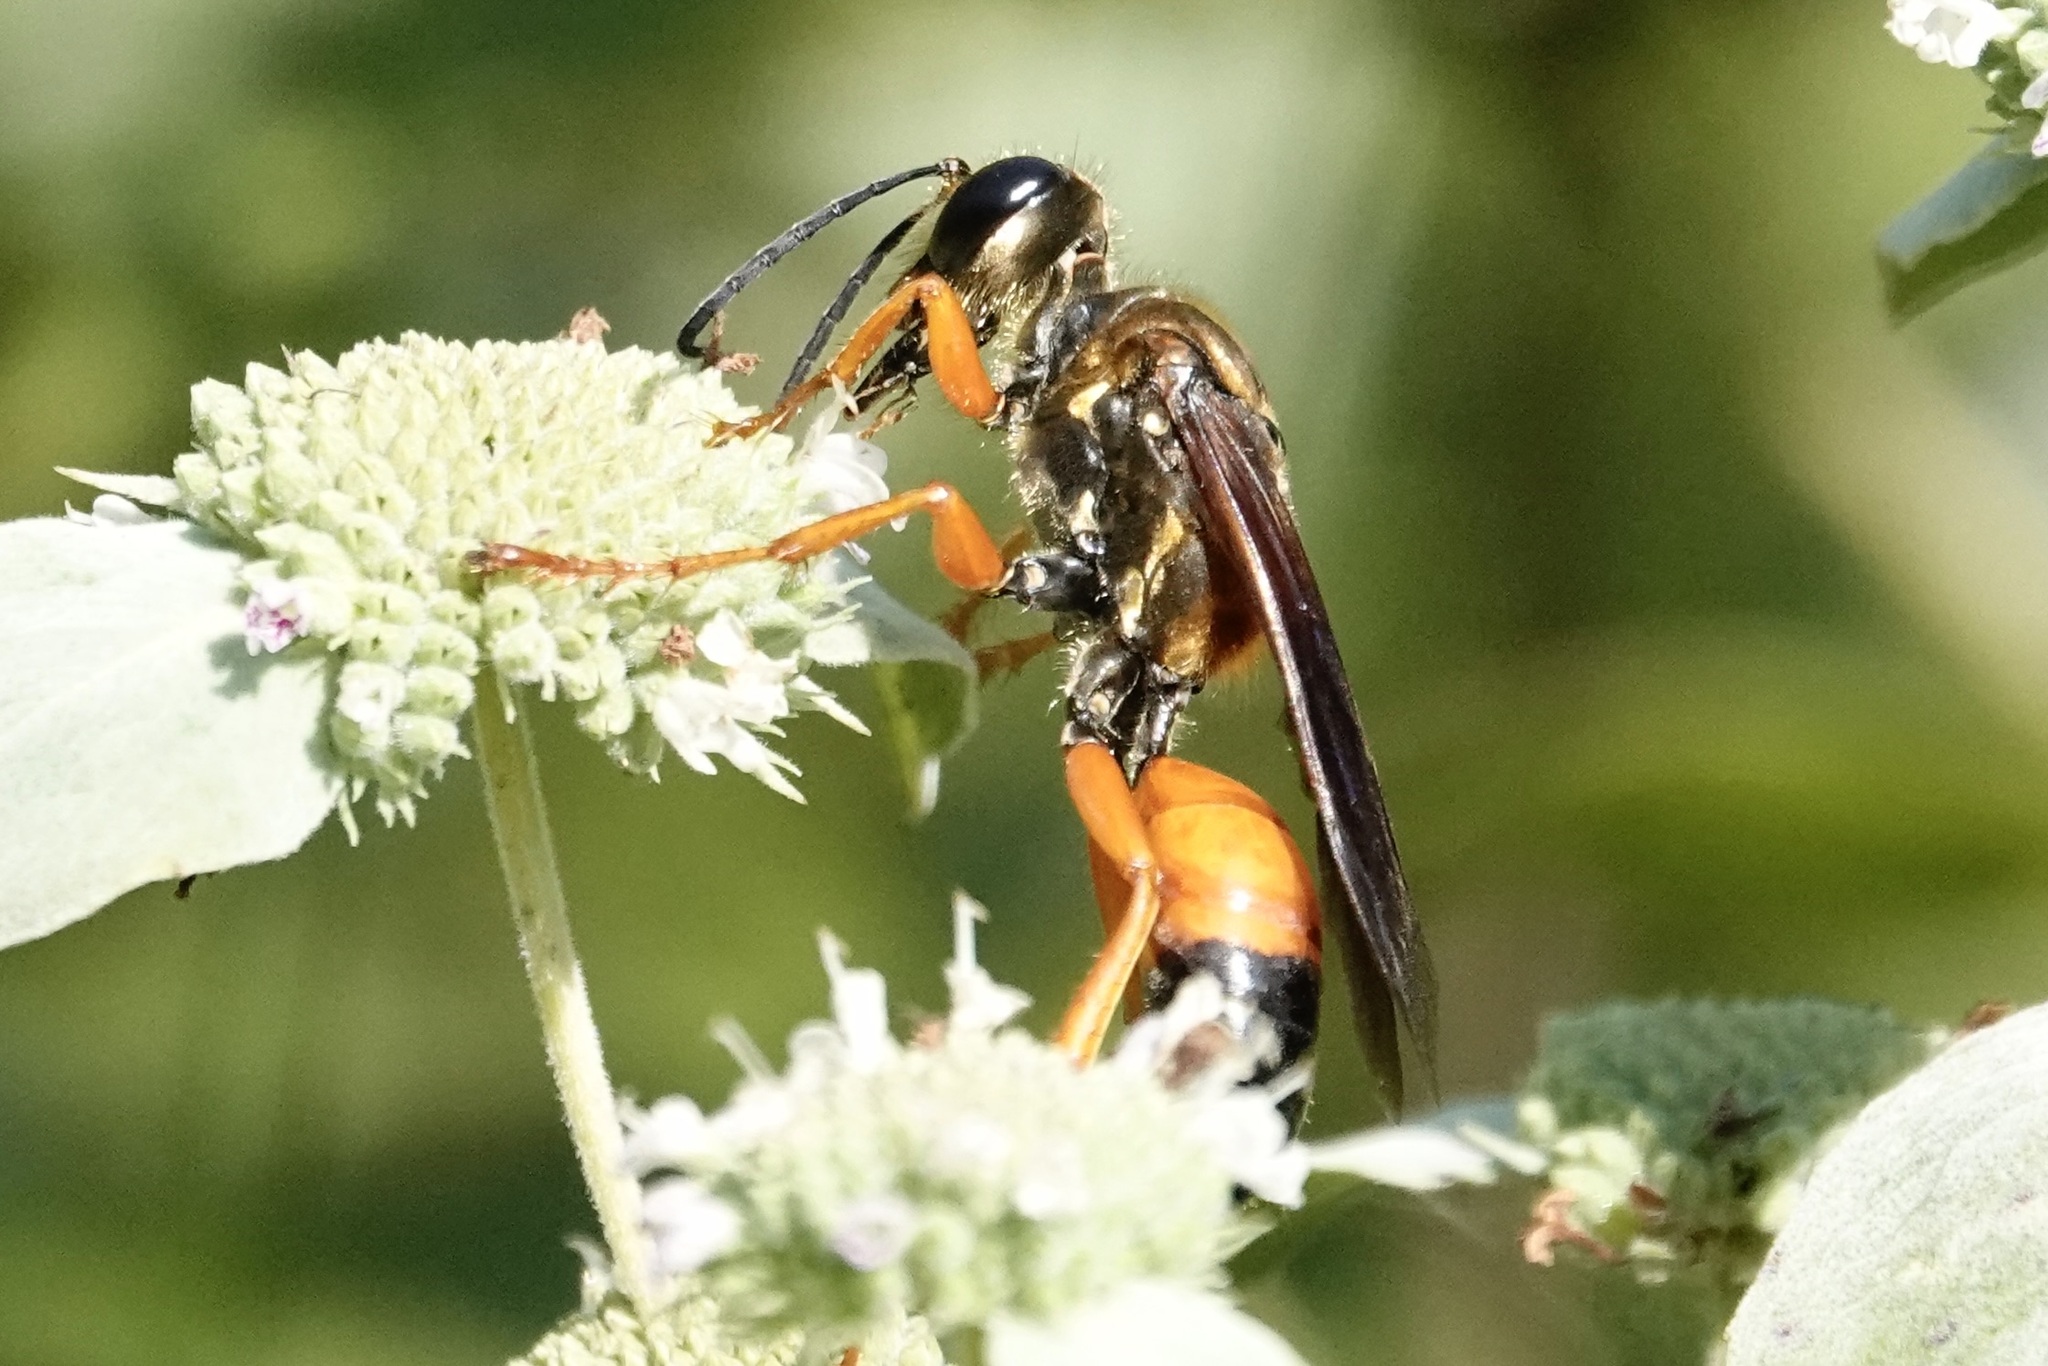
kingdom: Animalia
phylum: Arthropoda
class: Insecta
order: Hymenoptera
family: Sphecidae
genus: Sphex
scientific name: Sphex ichneumoneus
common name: Great golden digger wasp
